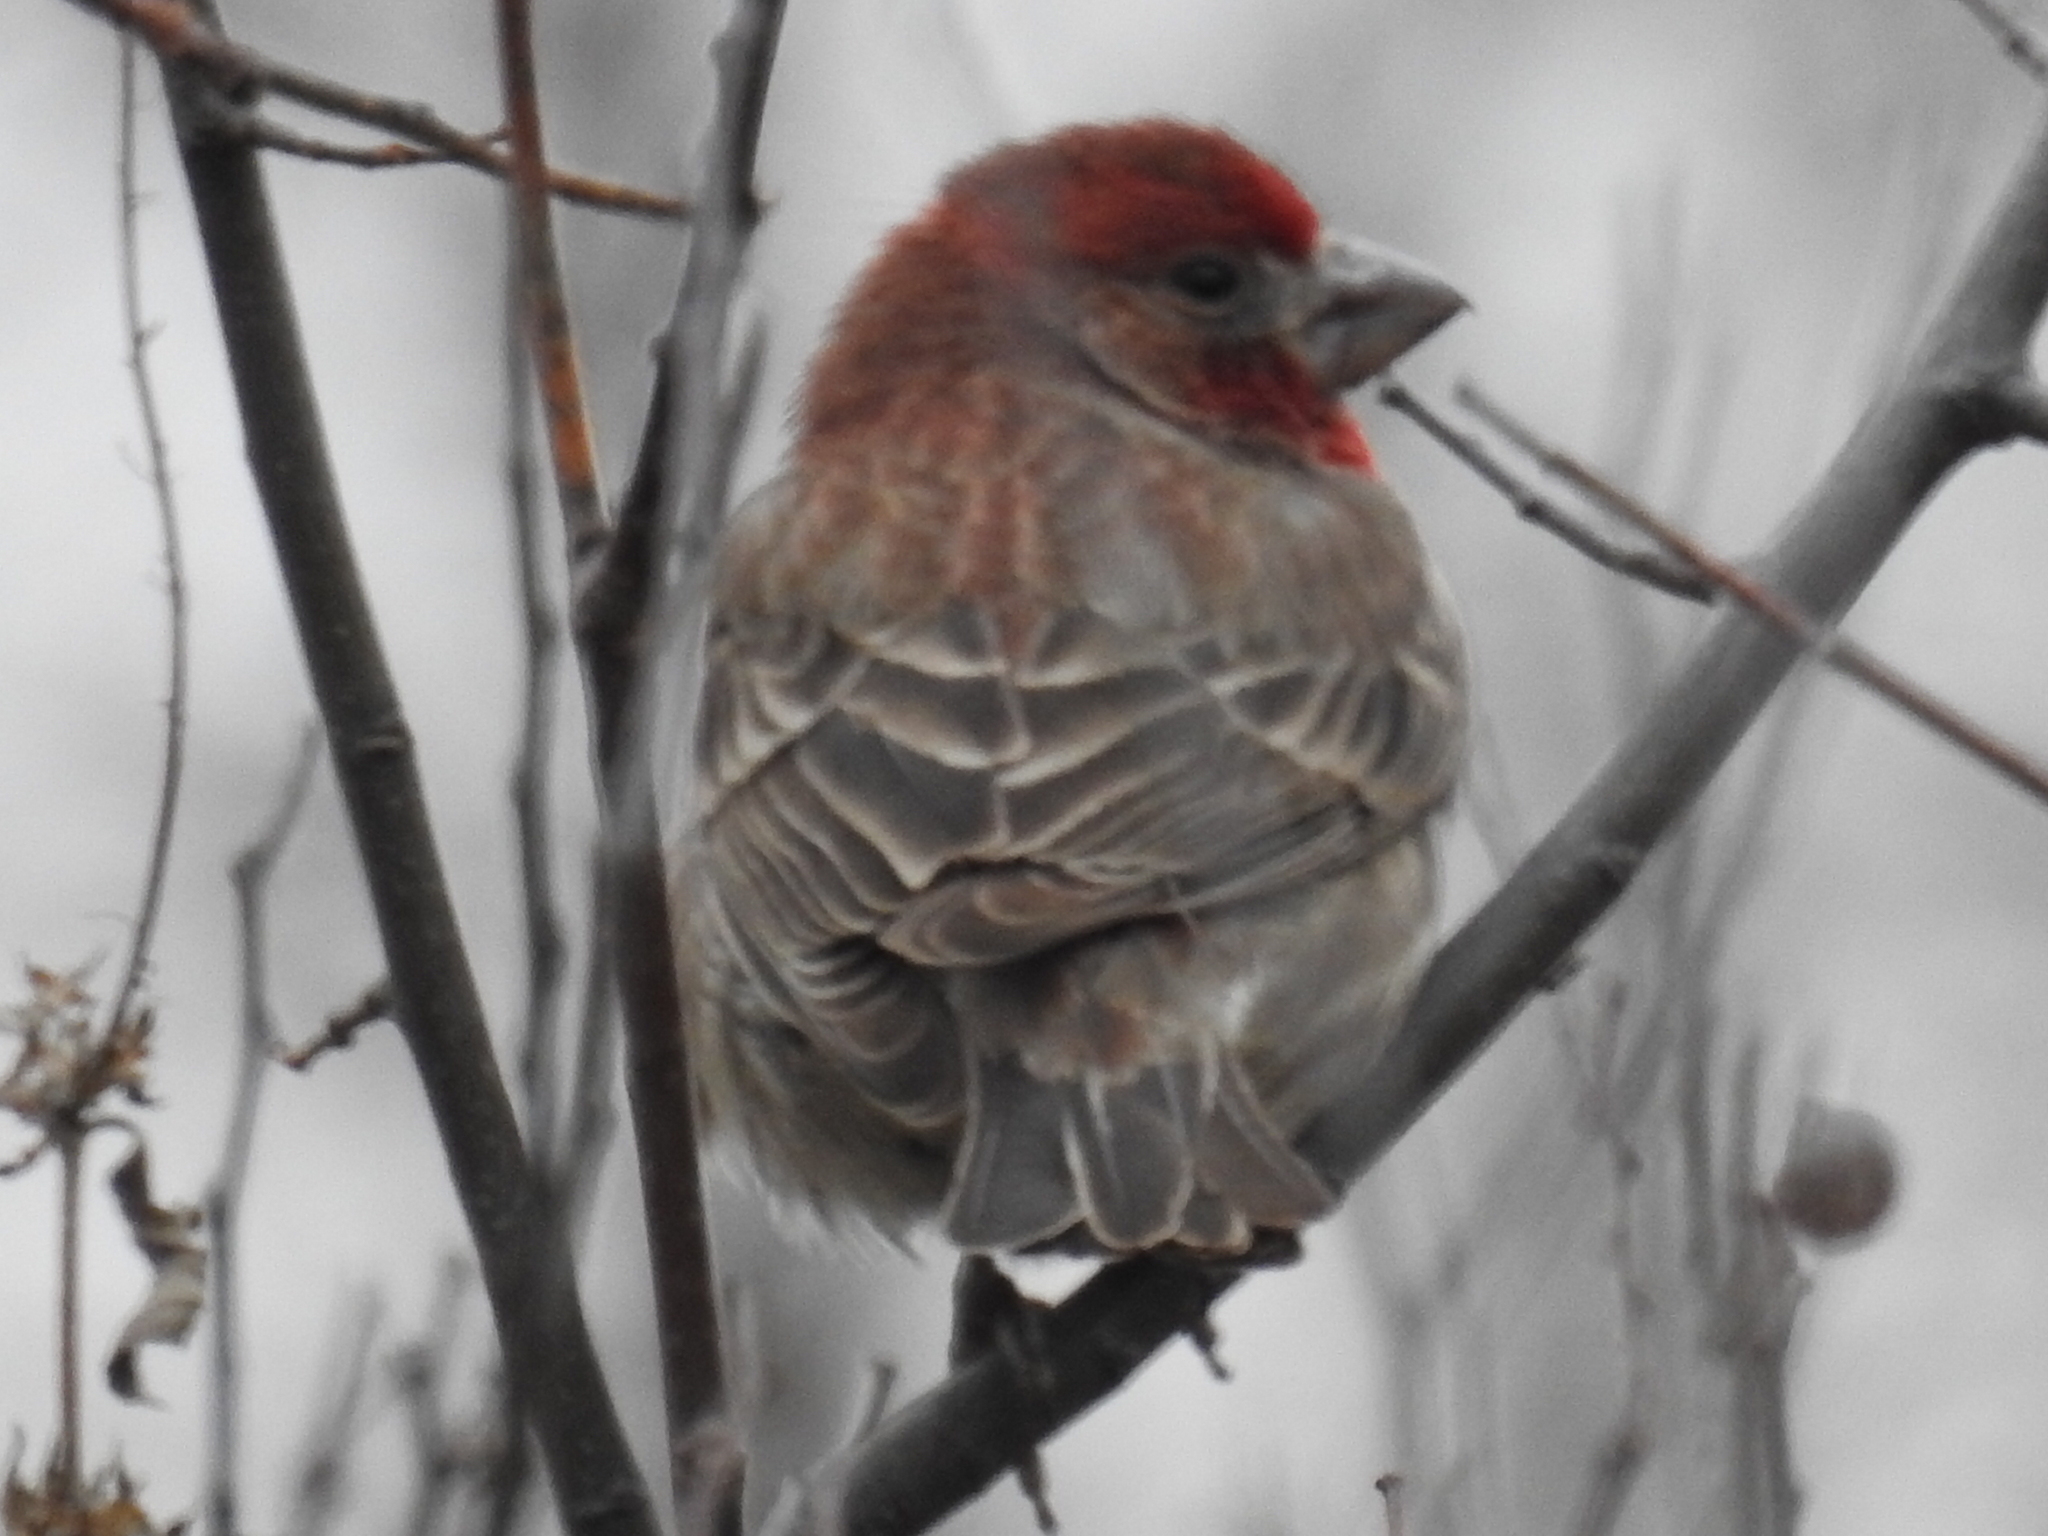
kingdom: Animalia
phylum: Chordata
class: Aves
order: Passeriformes
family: Fringillidae
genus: Haemorhous
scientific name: Haemorhous mexicanus
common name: House finch
